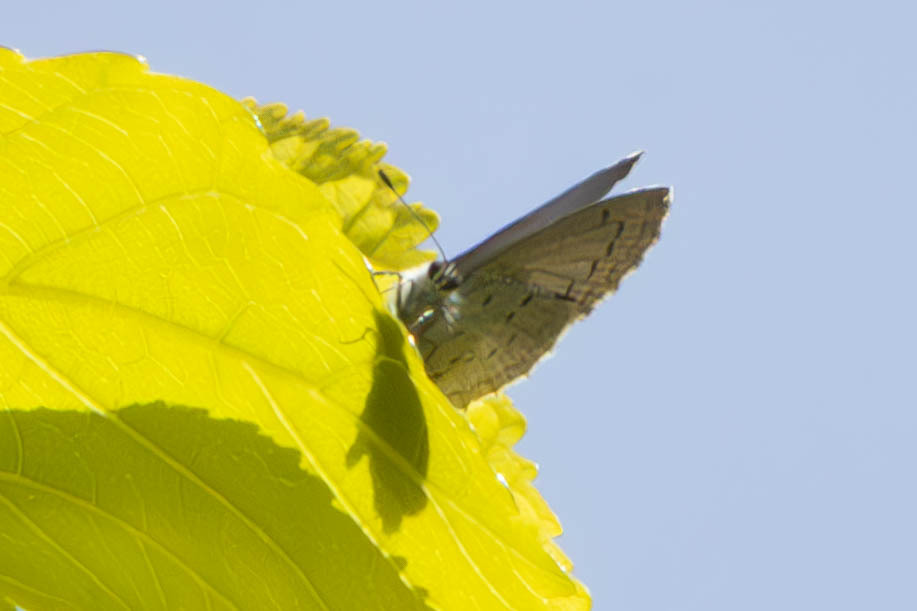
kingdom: Animalia
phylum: Arthropoda
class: Insecta
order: Lepidoptera
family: Lycaenidae
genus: Celastrina
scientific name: Celastrina ladon
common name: Spring azure
